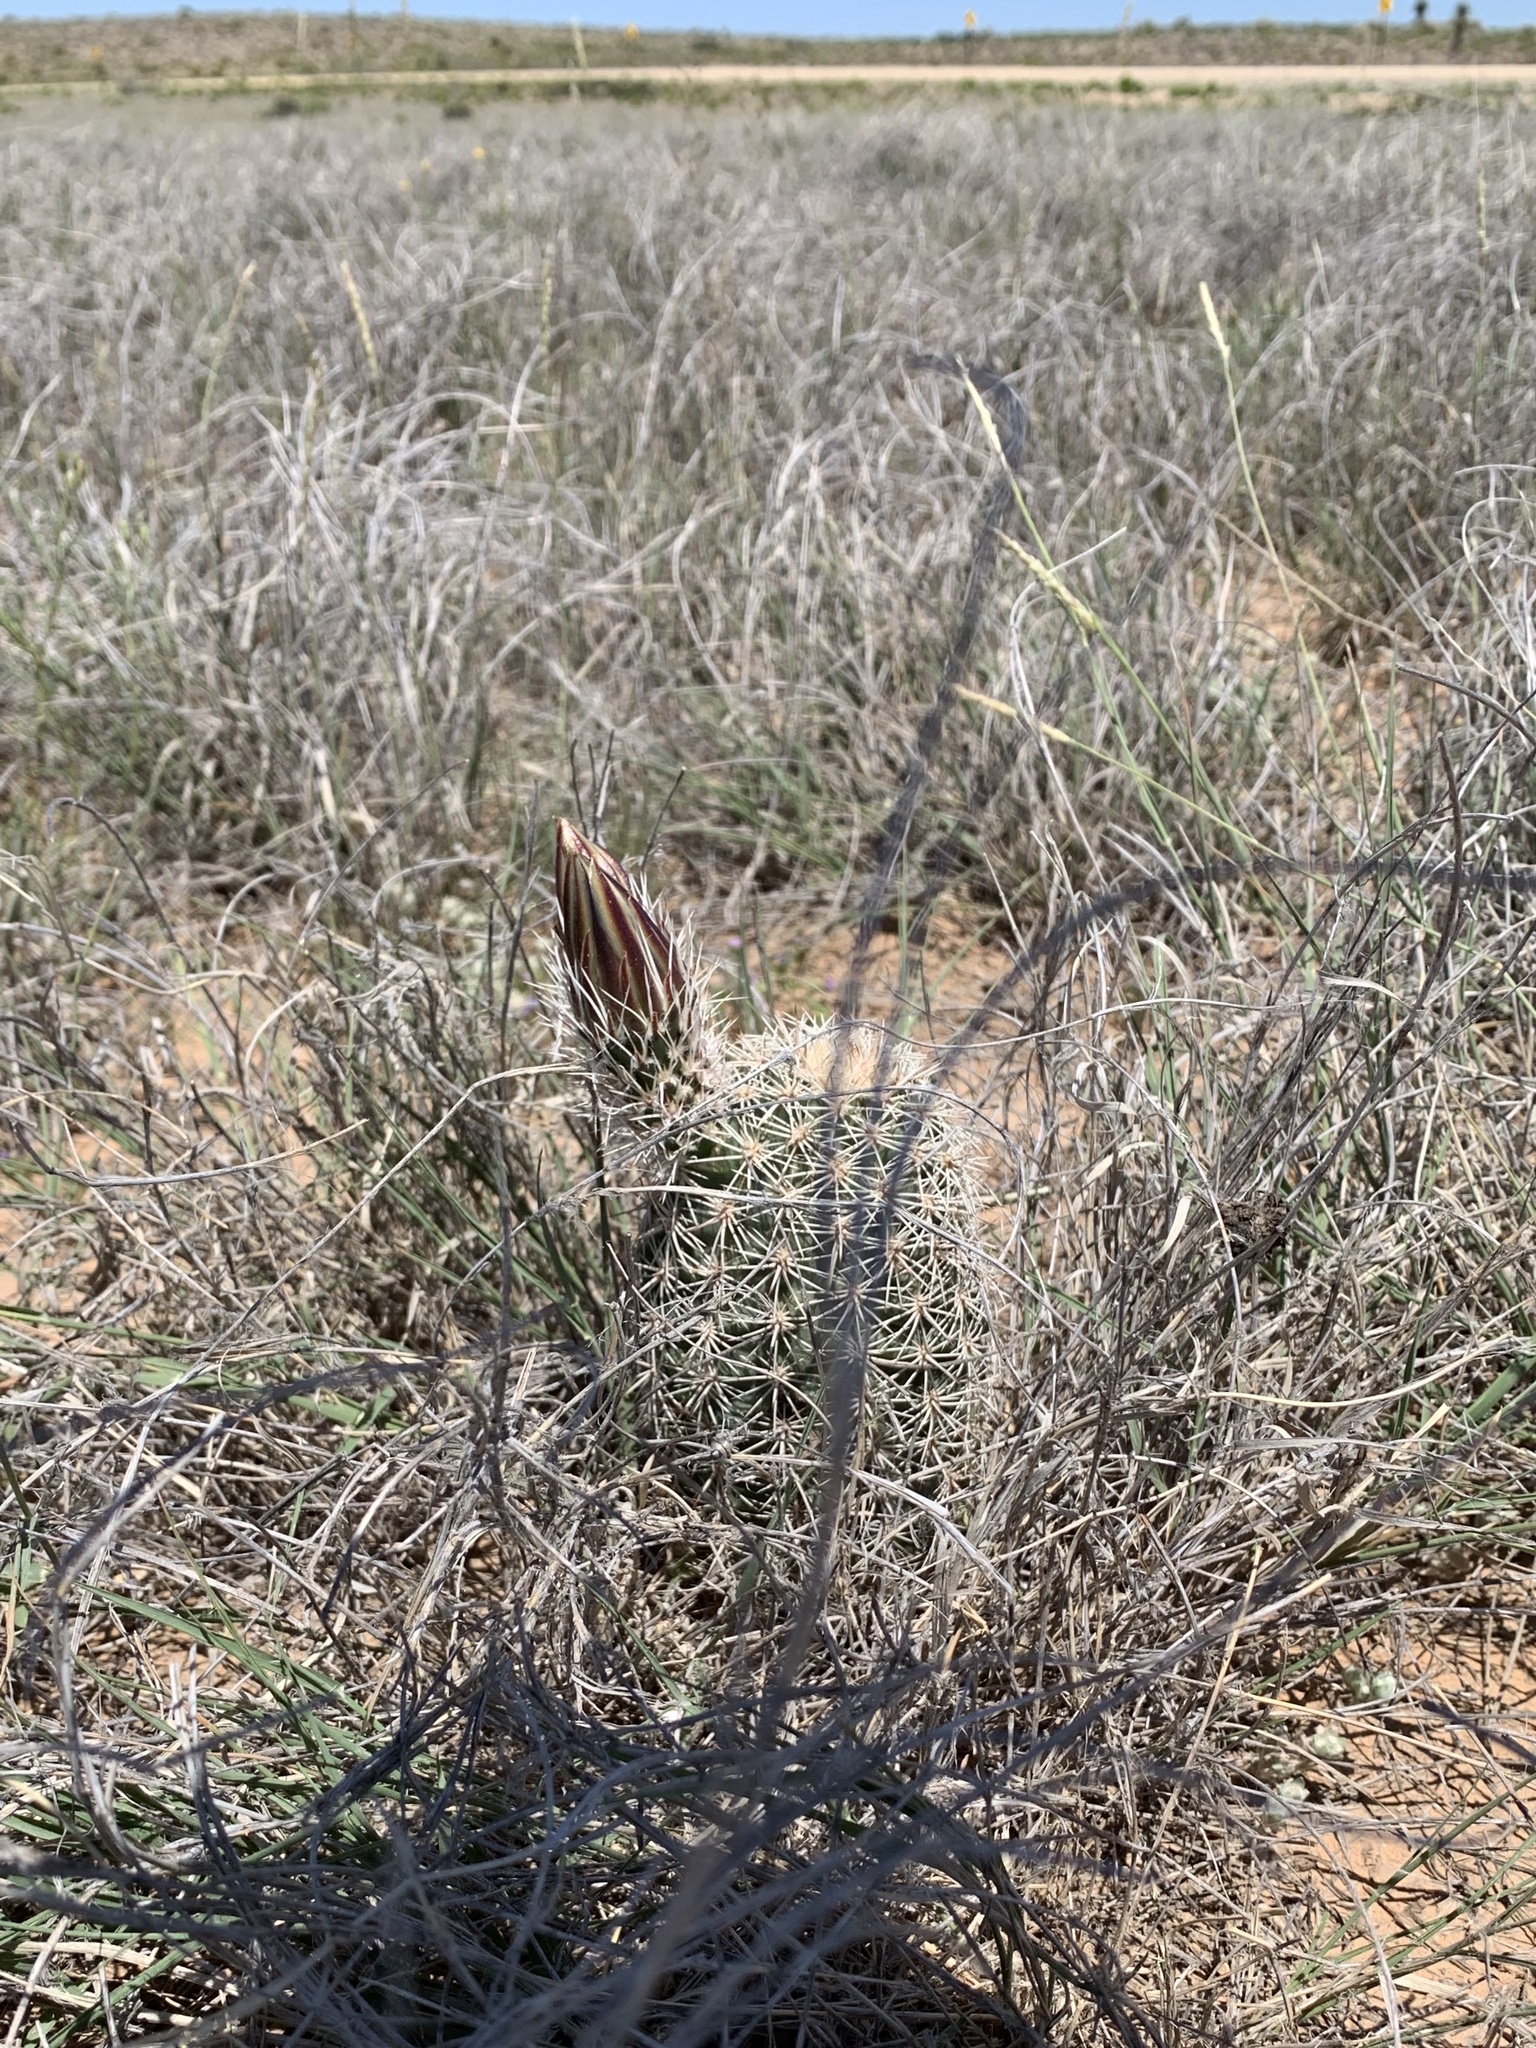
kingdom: Plantae
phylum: Tracheophyta
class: Magnoliopsida
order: Caryophyllales
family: Cactaceae
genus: Echinocereus
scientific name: Echinocereus dasyacanthus
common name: Spiny hedgehog cactus
